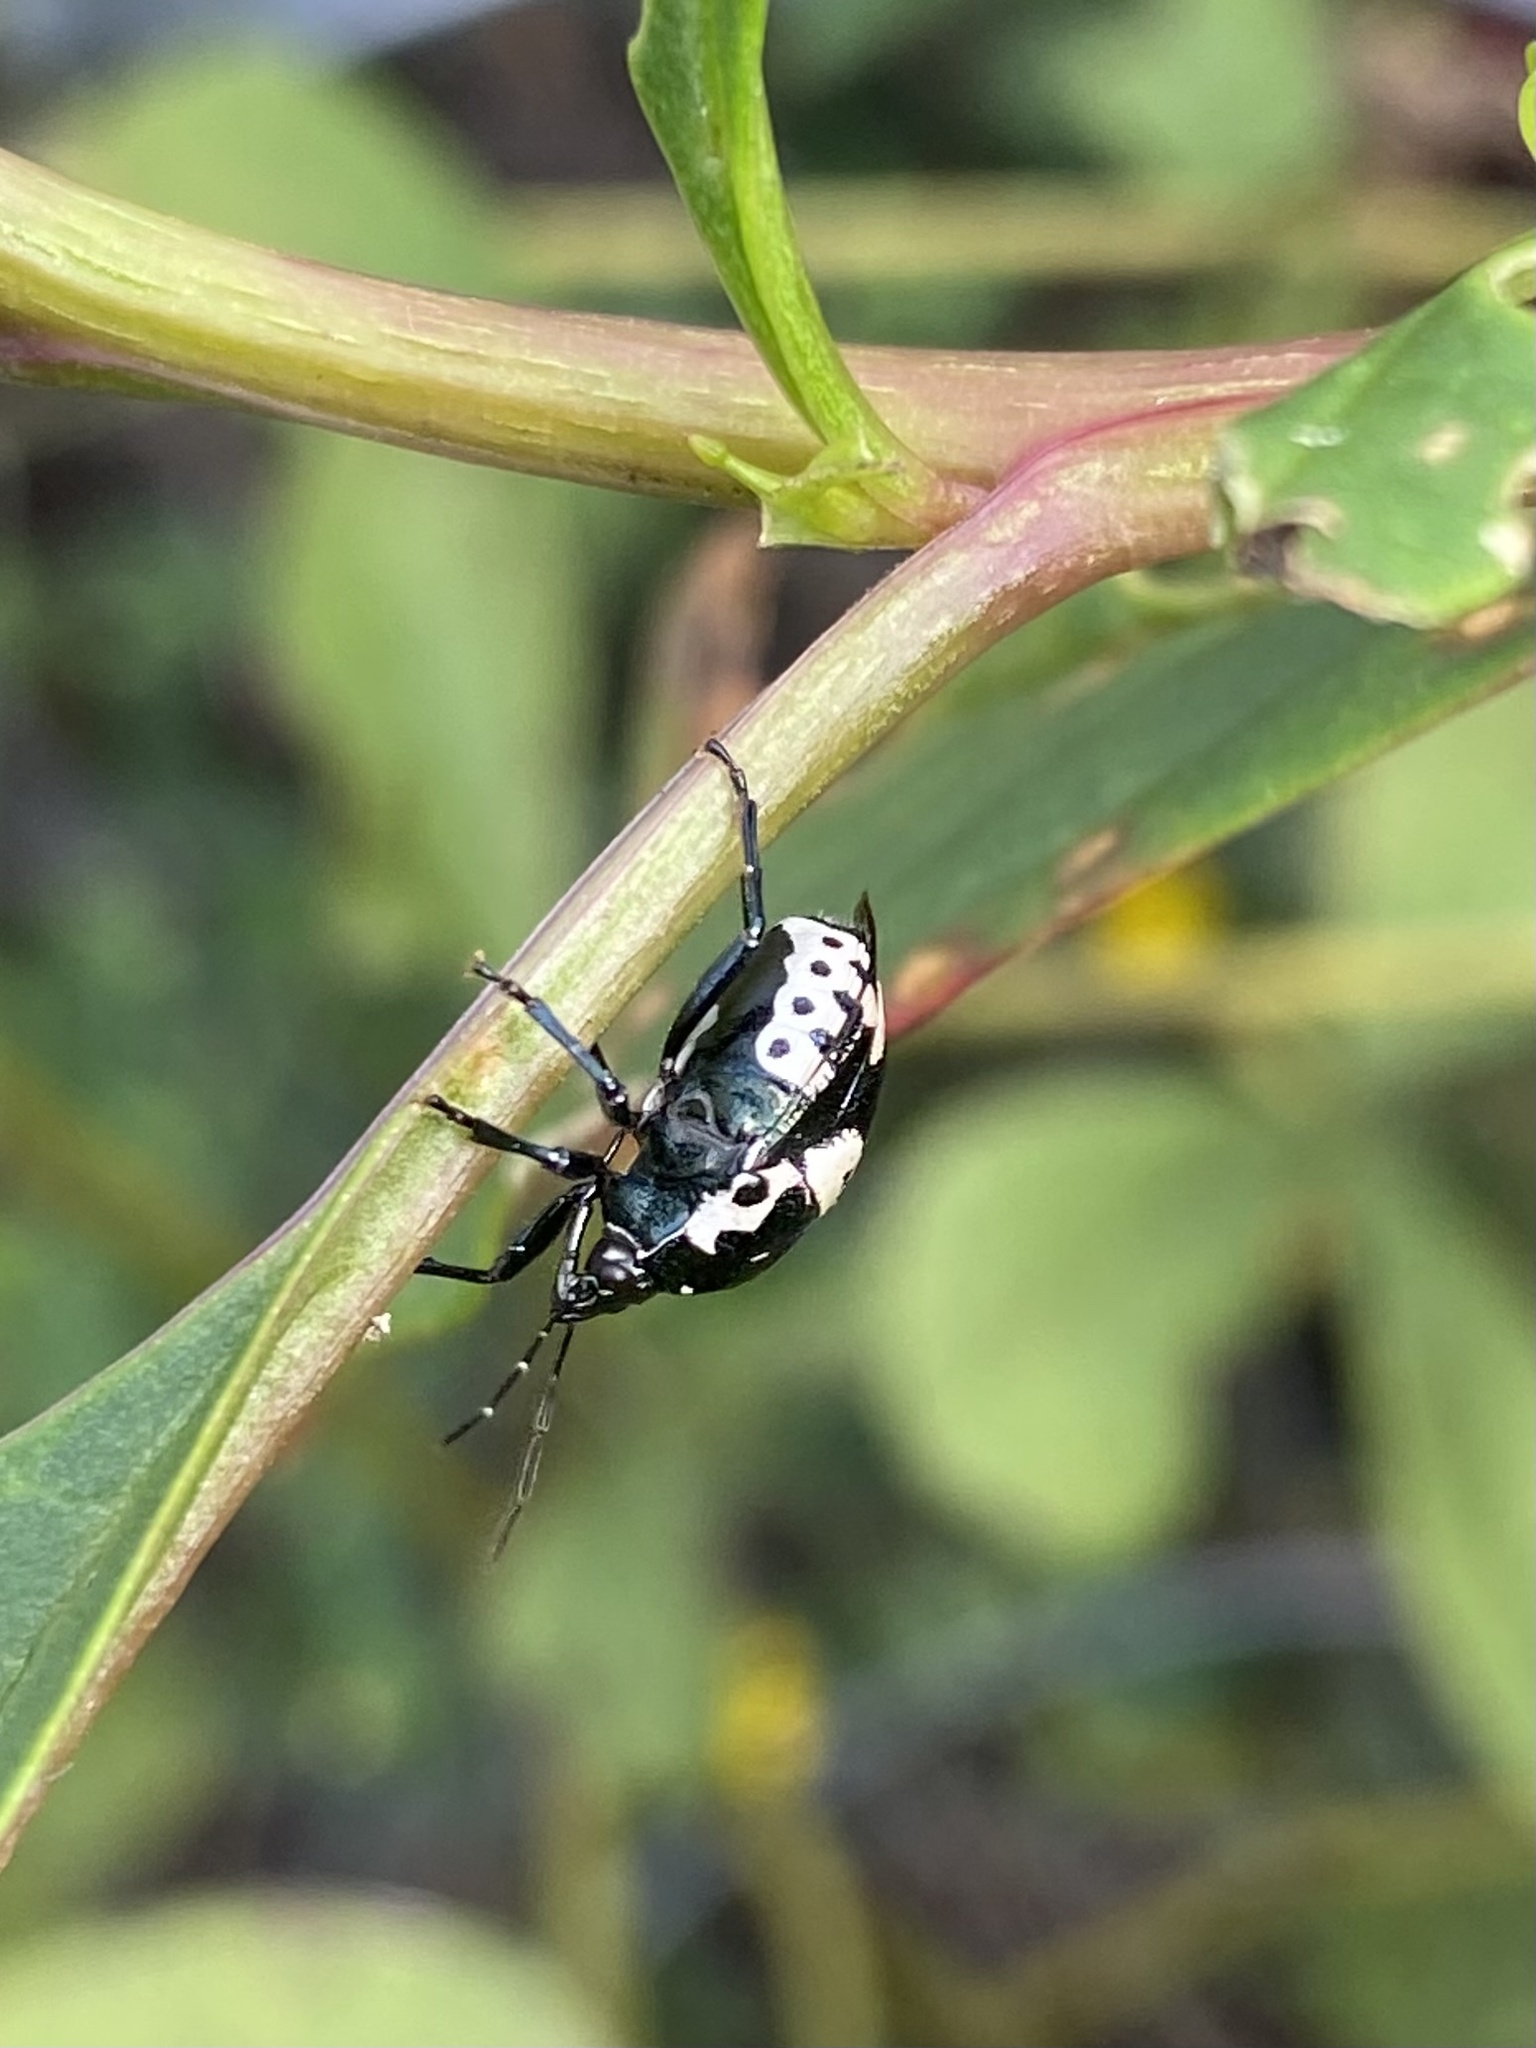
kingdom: Animalia
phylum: Arthropoda
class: Insecta
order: Hemiptera
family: Pentatomidae
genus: Stiretrus
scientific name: Stiretrus anchorago
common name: Anchor stink bug
